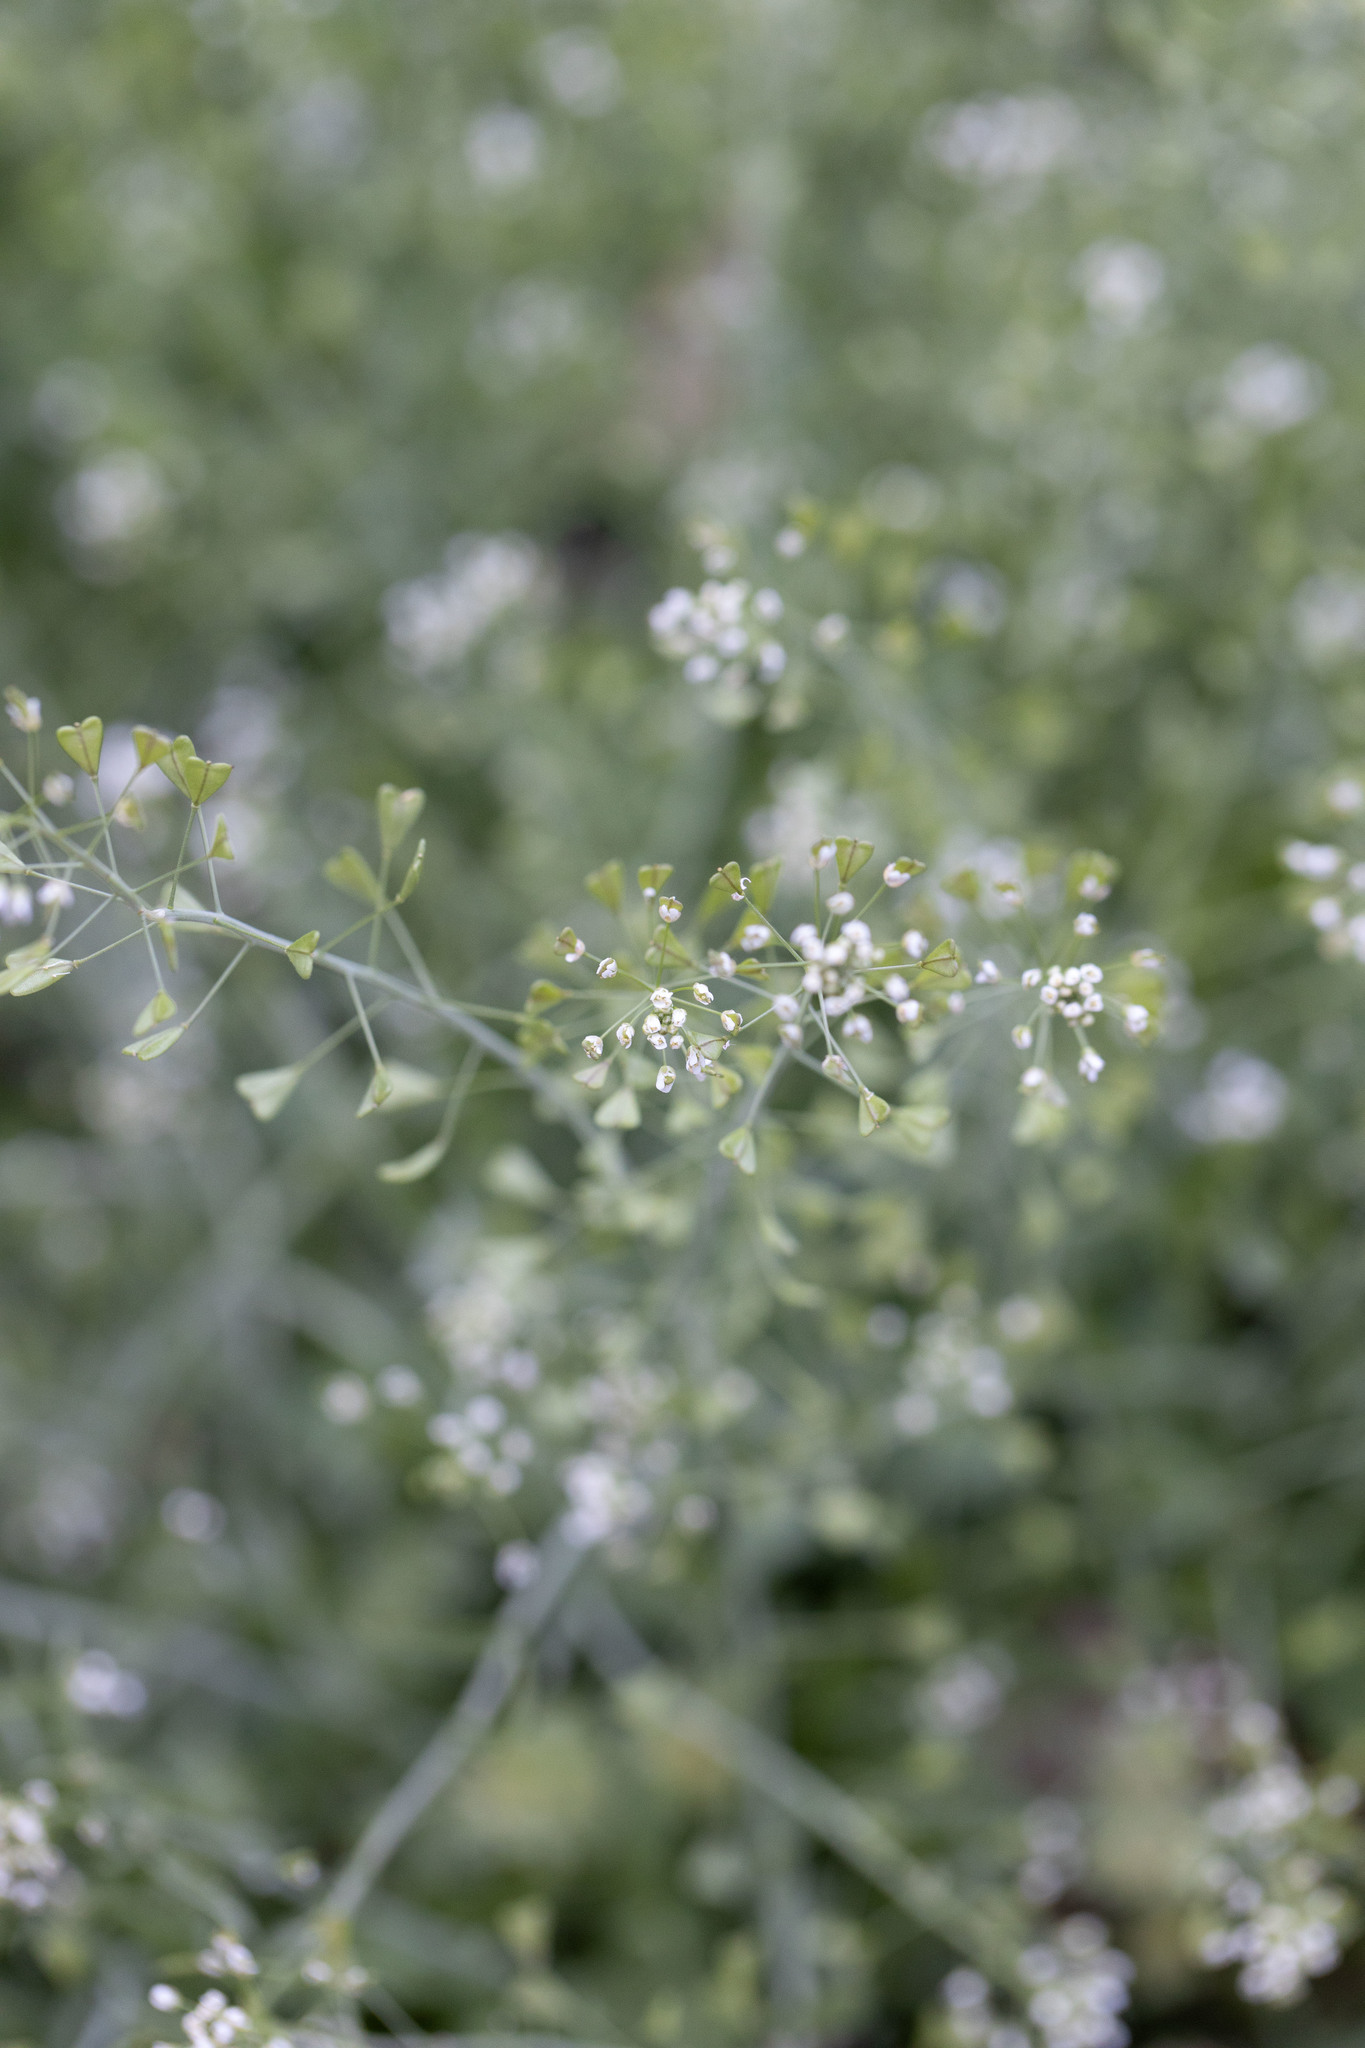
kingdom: Plantae
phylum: Tracheophyta
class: Magnoliopsida
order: Brassicales
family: Brassicaceae
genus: Capsella
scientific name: Capsella bursa-pastoris
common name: Shepherd's purse
